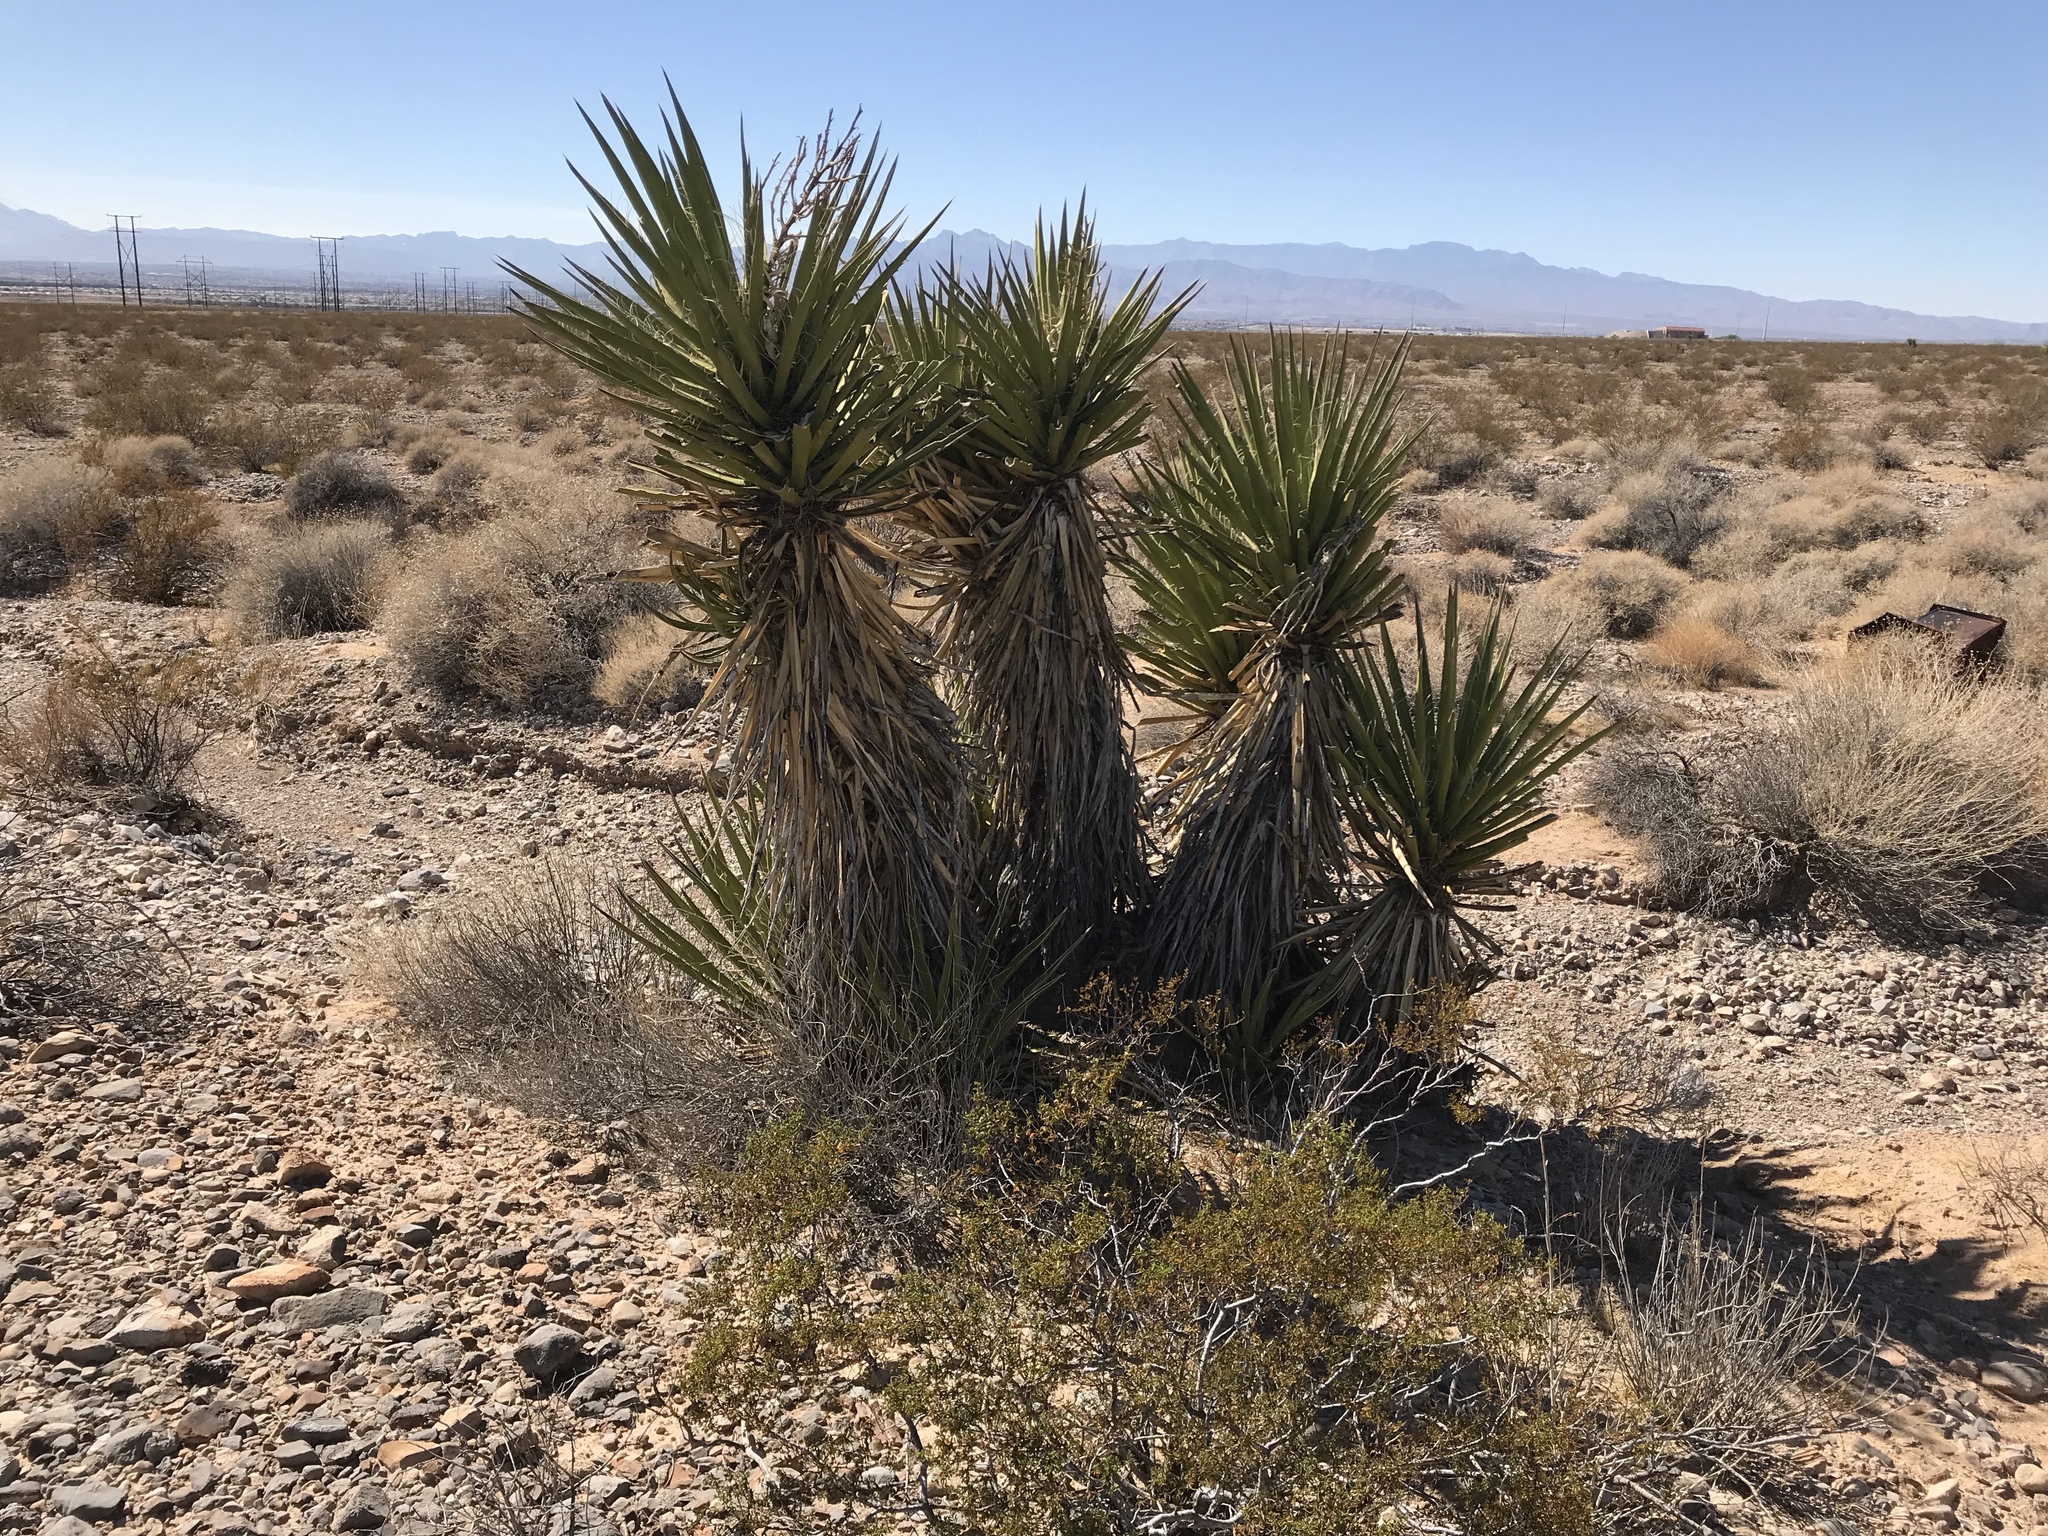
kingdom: Plantae
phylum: Tracheophyta
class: Liliopsida
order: Asparagales
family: Asparagaceae
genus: Yucca
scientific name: Yucca schidigera
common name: Mojave yucca
